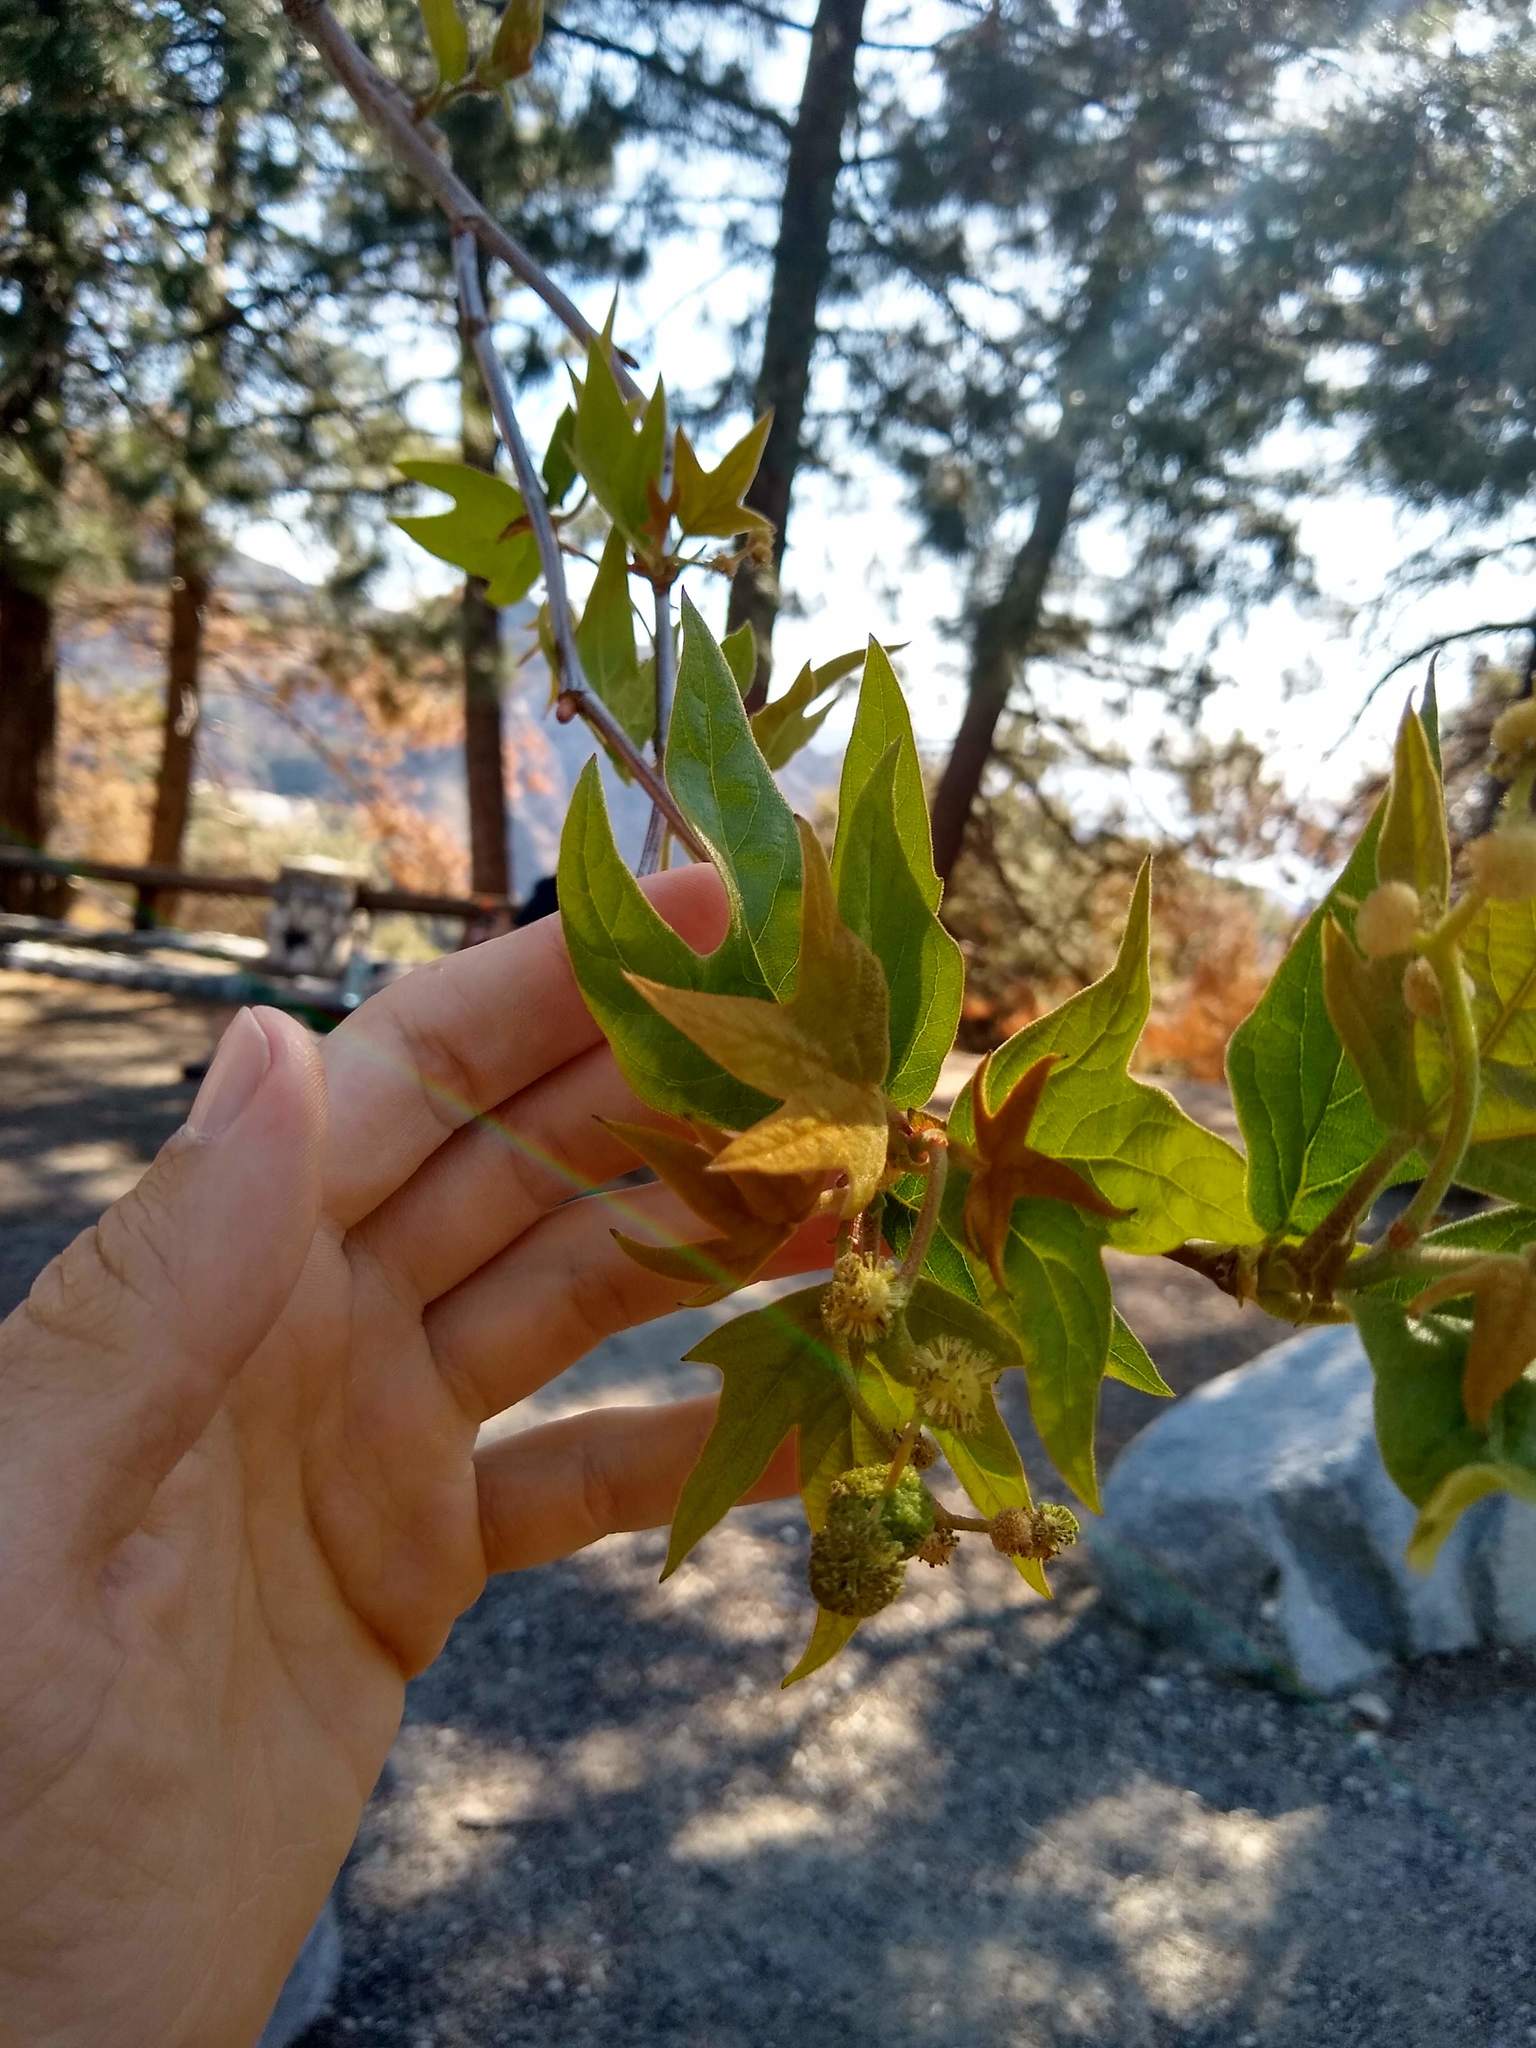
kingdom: Plantae
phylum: Tracheophyta
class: Magnoliopsida
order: Proteales
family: Platanaceae
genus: Platanus
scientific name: Platanus racemosa
